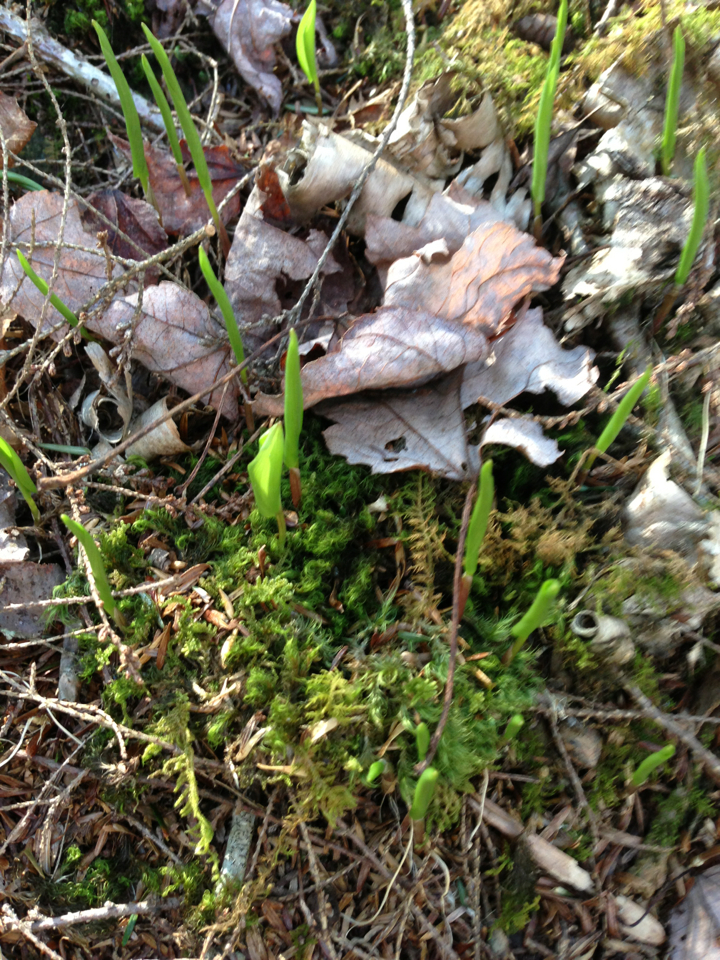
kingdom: Plantae
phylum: Tracheophyta
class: Liliopsida
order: Asparagales
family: Asparagaceae
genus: Maianthemum
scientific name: Maianthemum canadense
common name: False lily-of-the-valley
